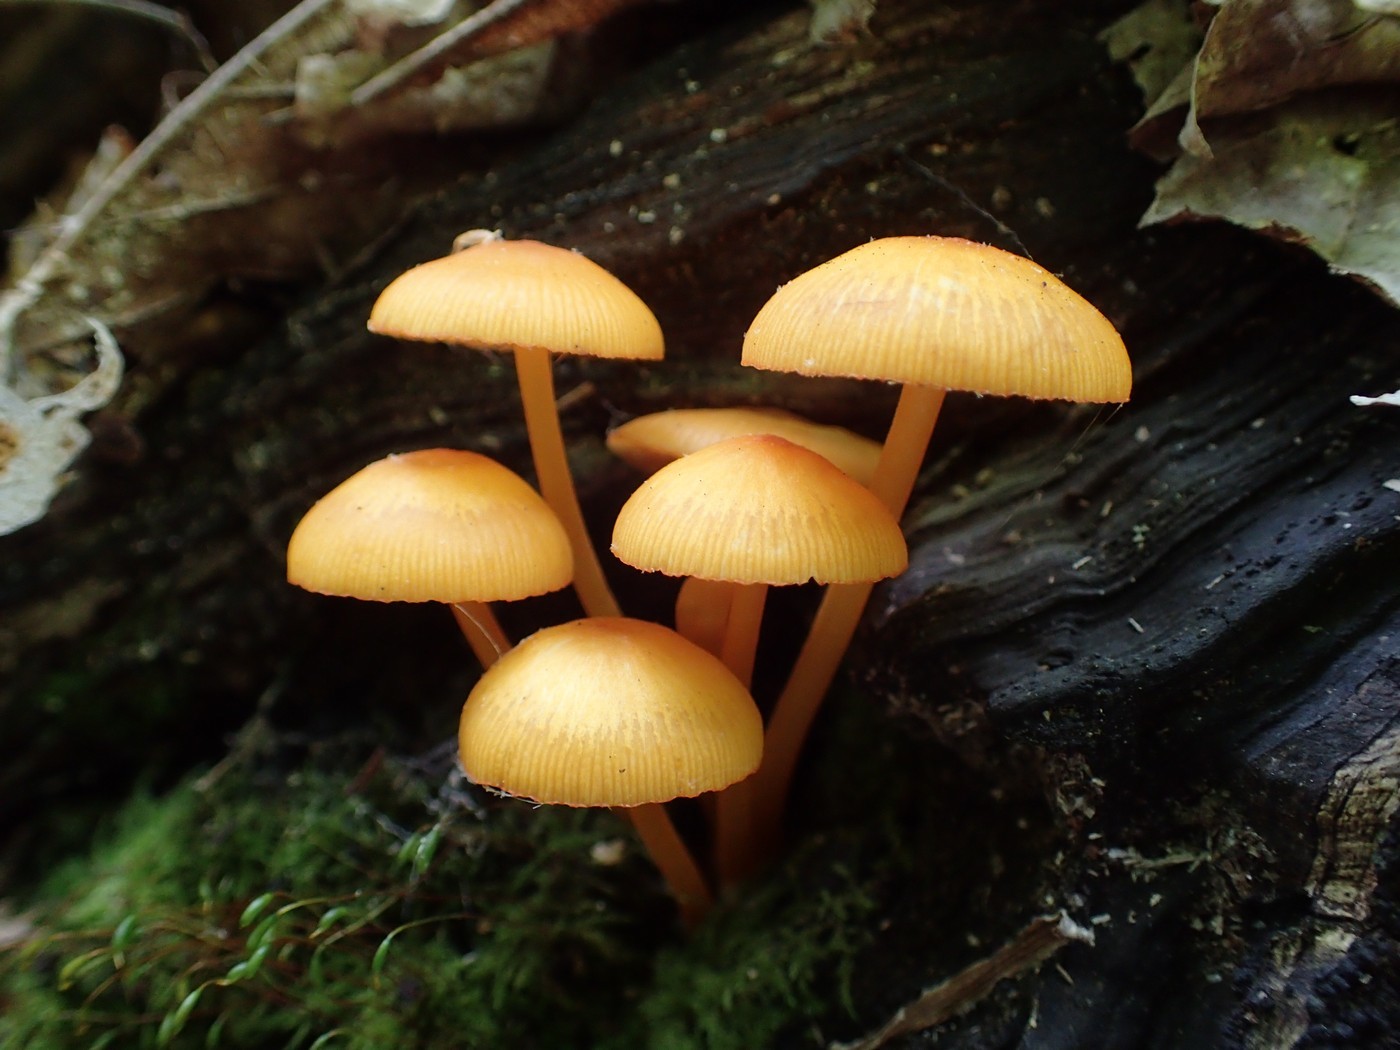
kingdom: Fungi
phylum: Basidiomycota
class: Agaricomycetes
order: Agaricales
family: Mycenaceae
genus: Mycena
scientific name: Mycena leaiana
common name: Orange mycena
